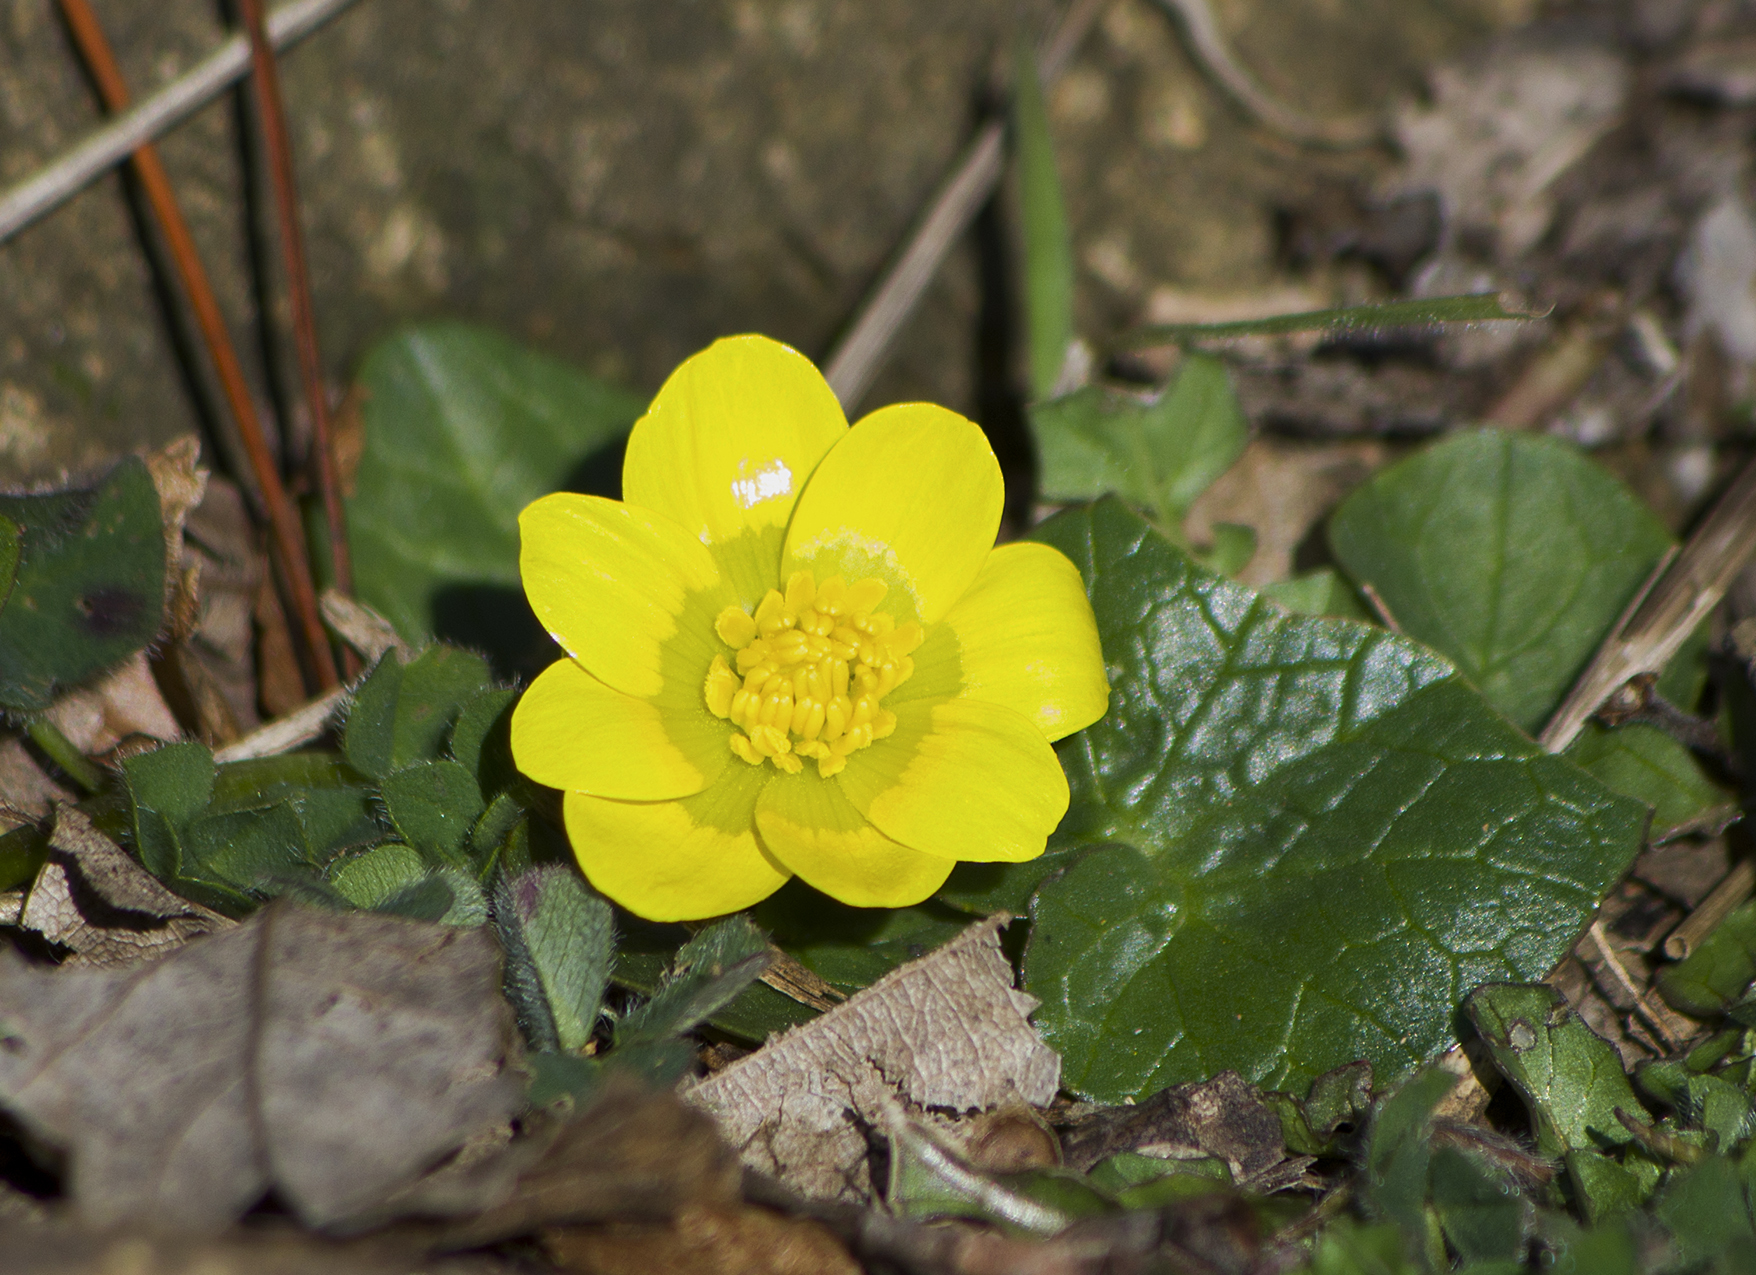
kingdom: Plantae
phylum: Tracheophyta
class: Magnoliopsida
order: Ranunculales
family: Ranunculaceae
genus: Ficaria
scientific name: Ficaria verna
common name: Lesser celandine
